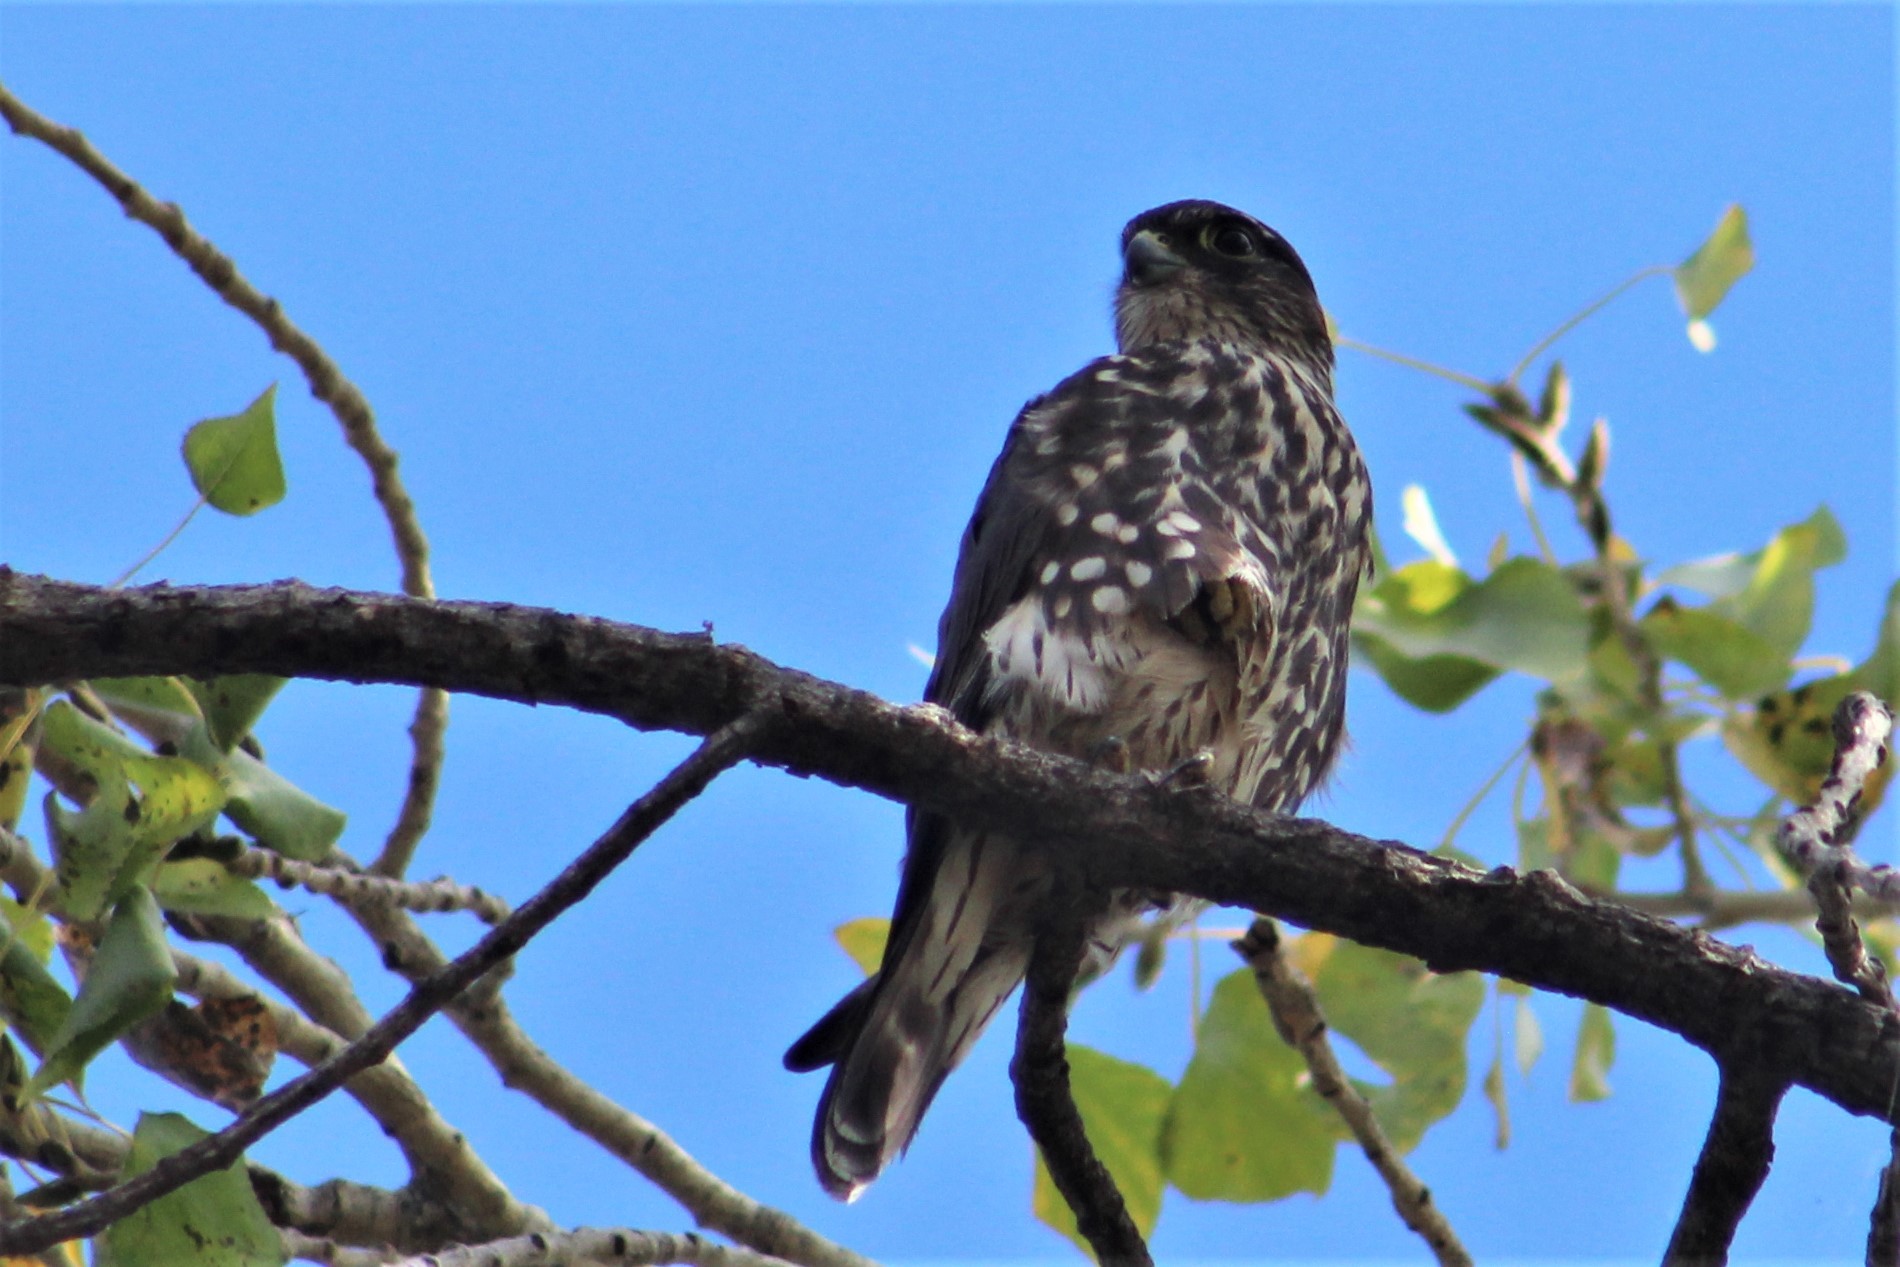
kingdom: Animalia
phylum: Chordata
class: Aves
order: Falconiformes
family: Falconidae
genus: Falco
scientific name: Falco columbarius
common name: Merlin
